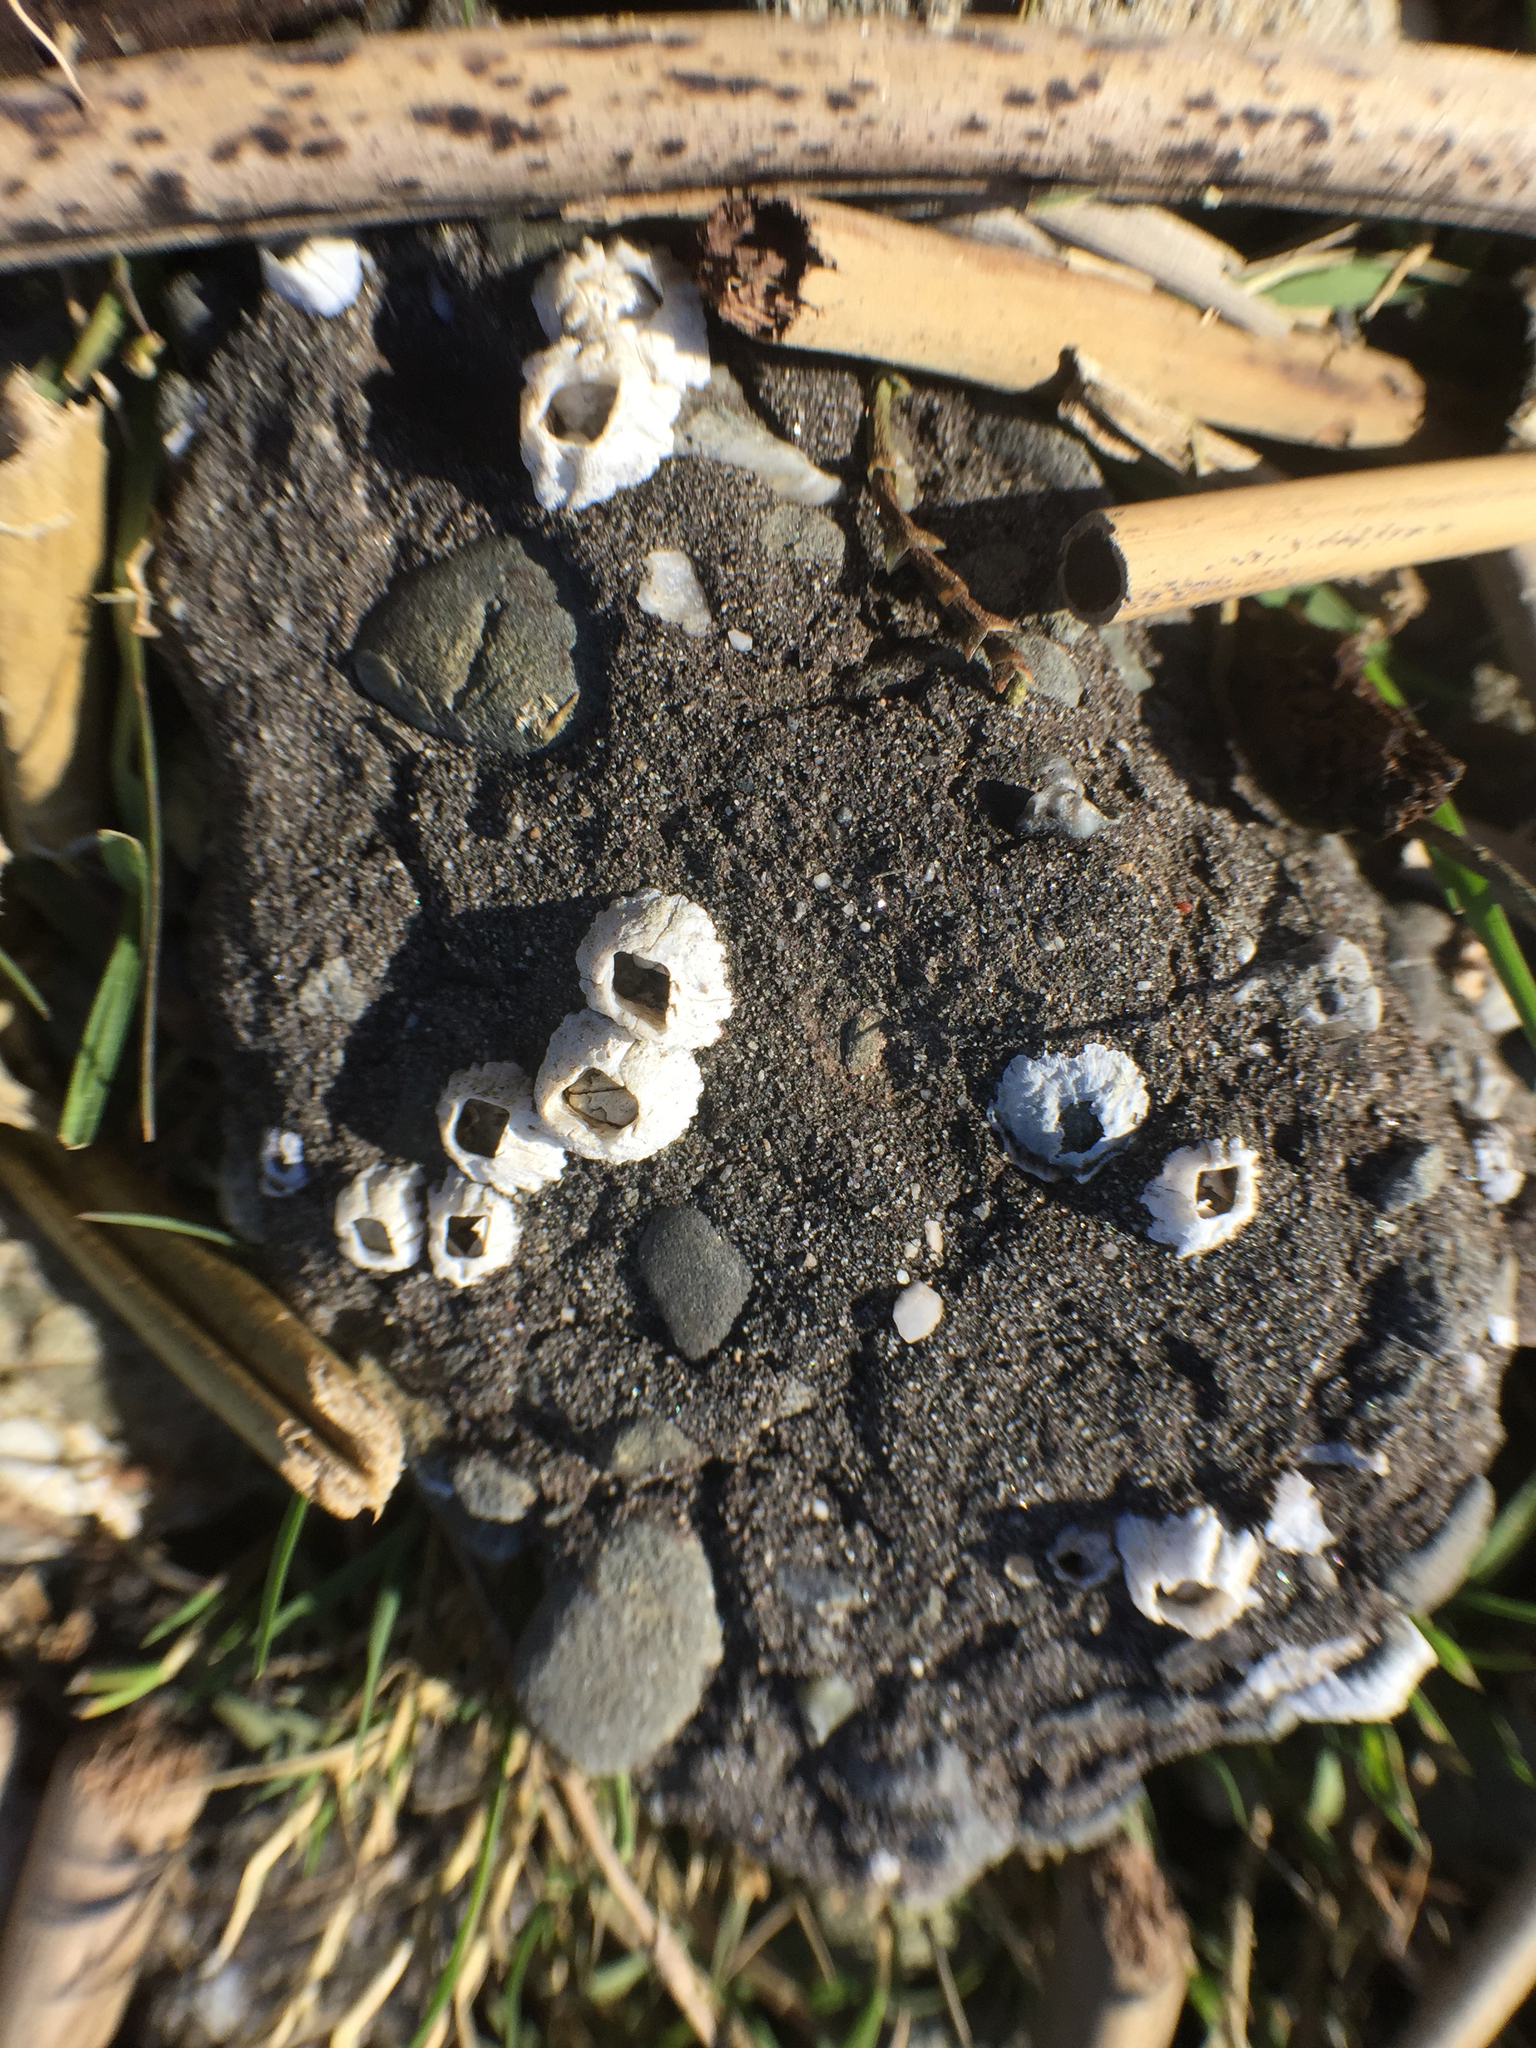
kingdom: Animalia
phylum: Arthropoda
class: Maxillopoda
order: Sessilia
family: Balanidae
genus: Balanus
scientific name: Balanus glandula
